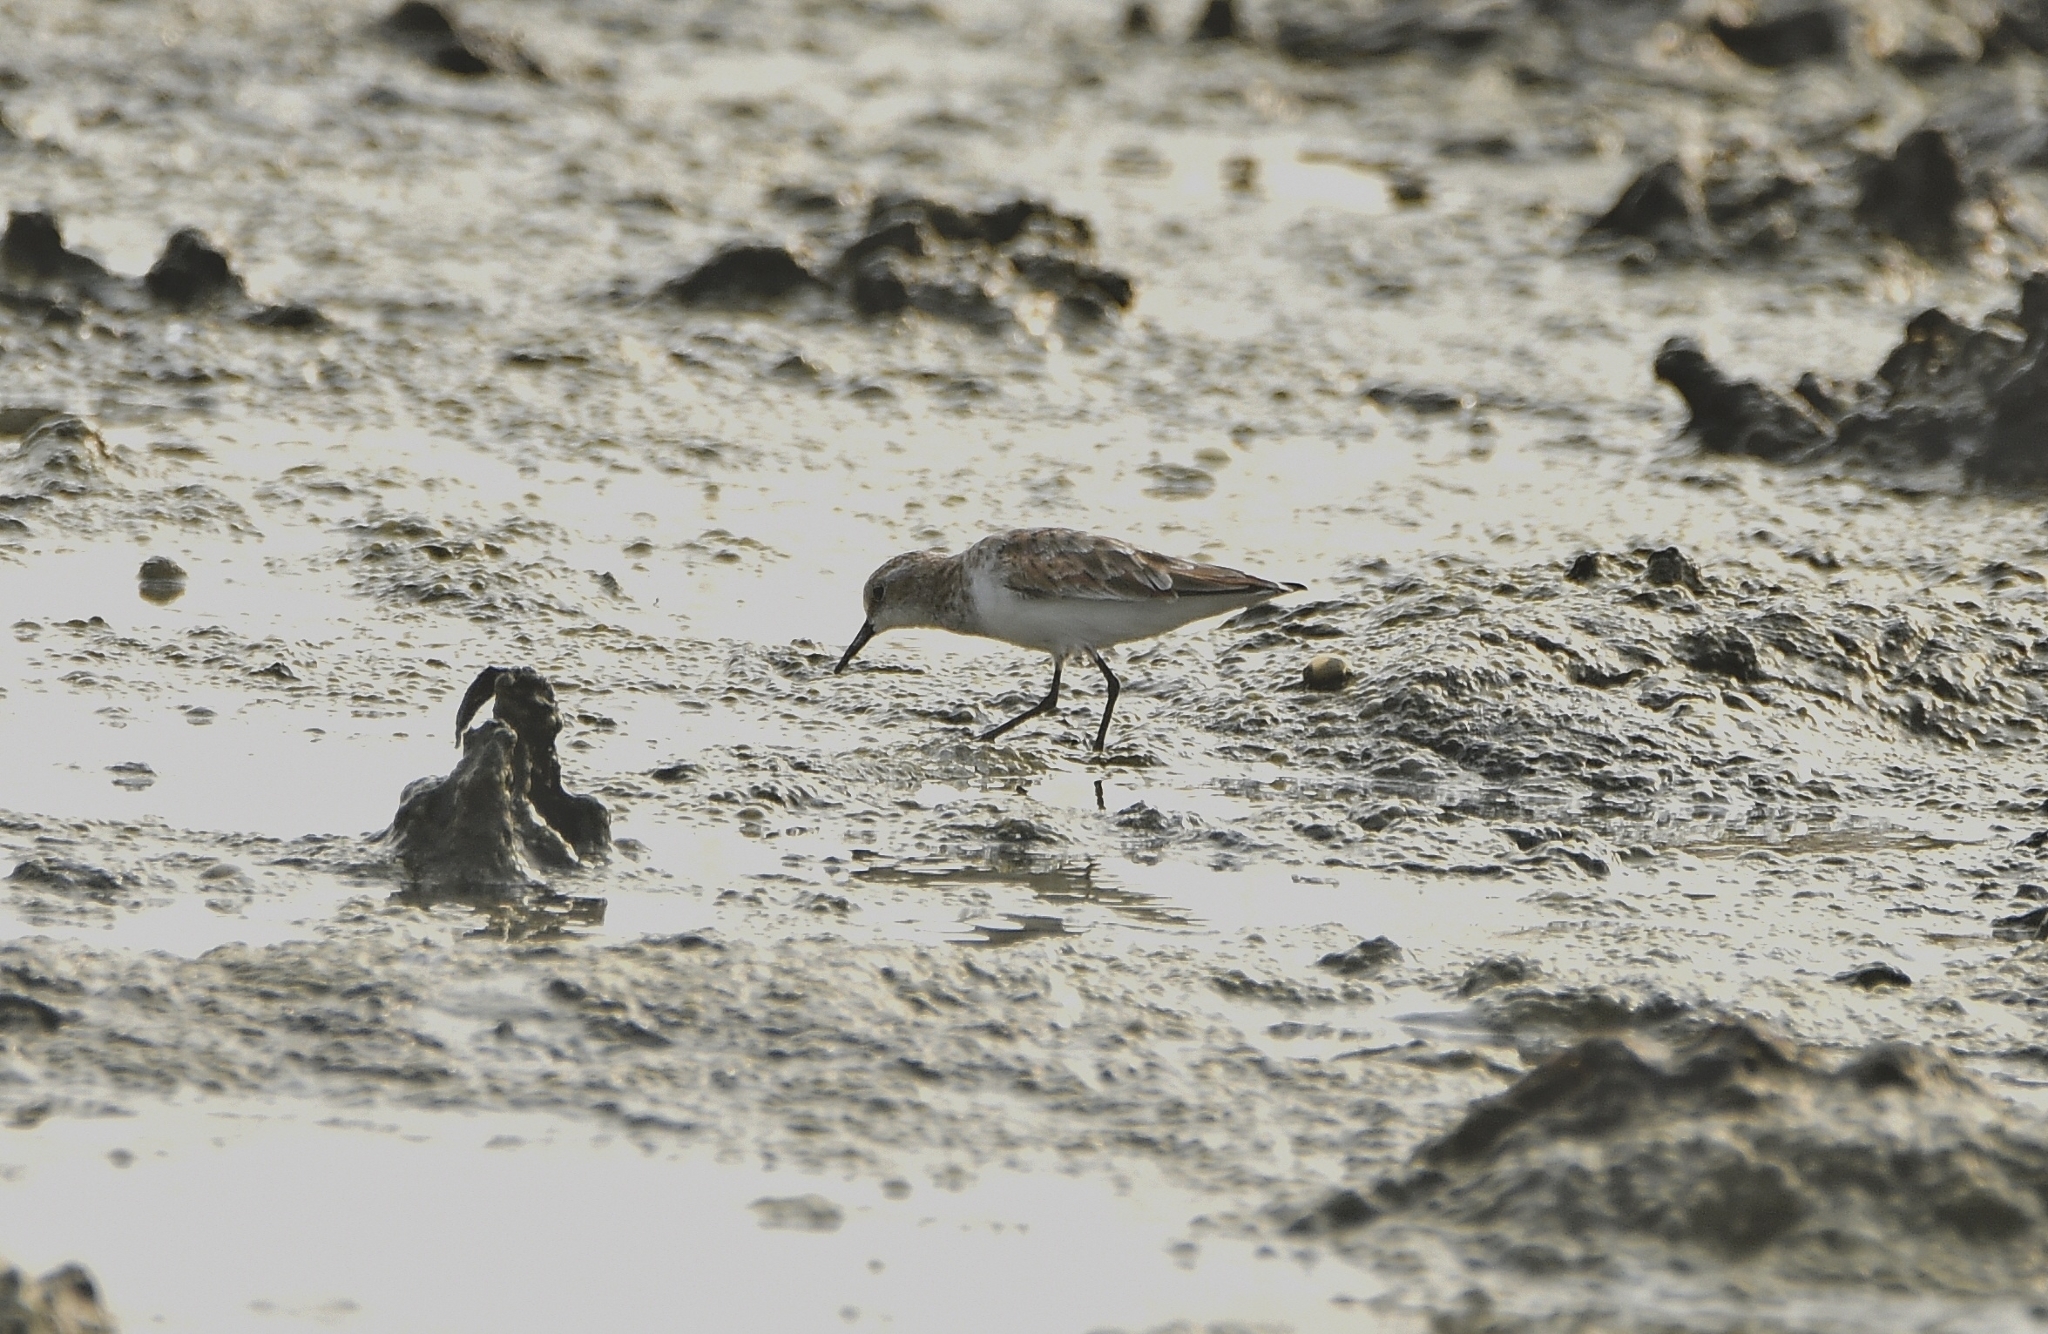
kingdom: Animalia
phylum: Chordata
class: Aves
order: Charadriiformes
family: Scolopacidae
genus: Calidris
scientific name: Calidris minuta
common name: Little stint
